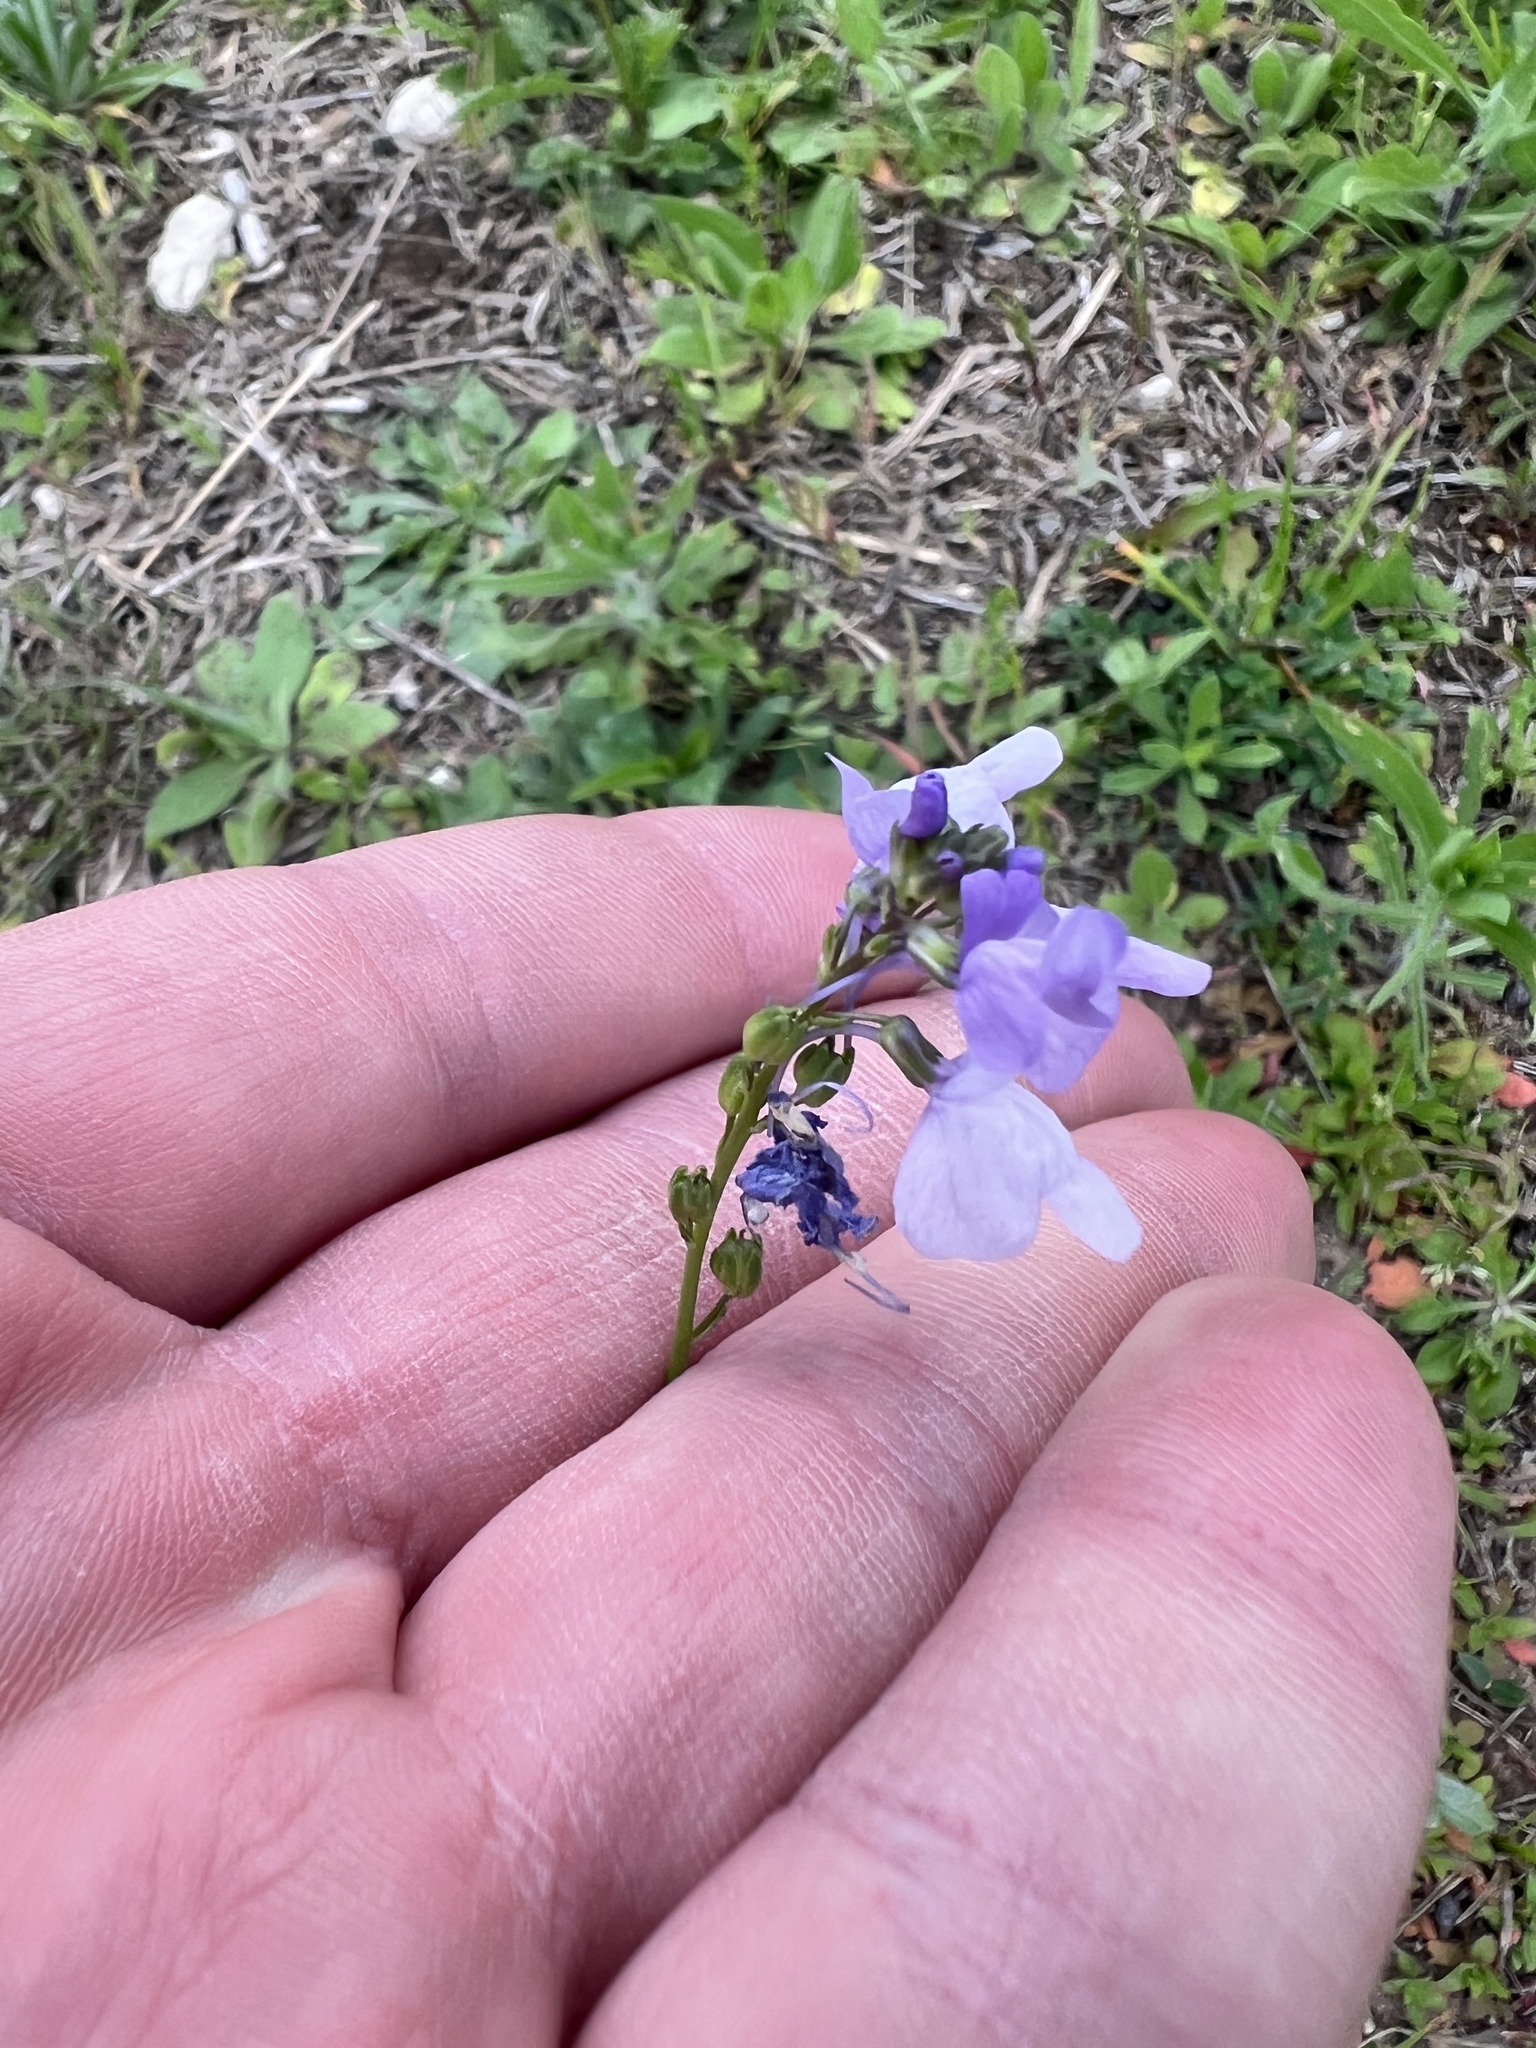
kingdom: Plantae
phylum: Tracheophyta
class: Magnoliopsida
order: Lamiales
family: Plantaginaceae
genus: Nuttallanthus
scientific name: Nuttallanthus texanus
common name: Texas toadflax
